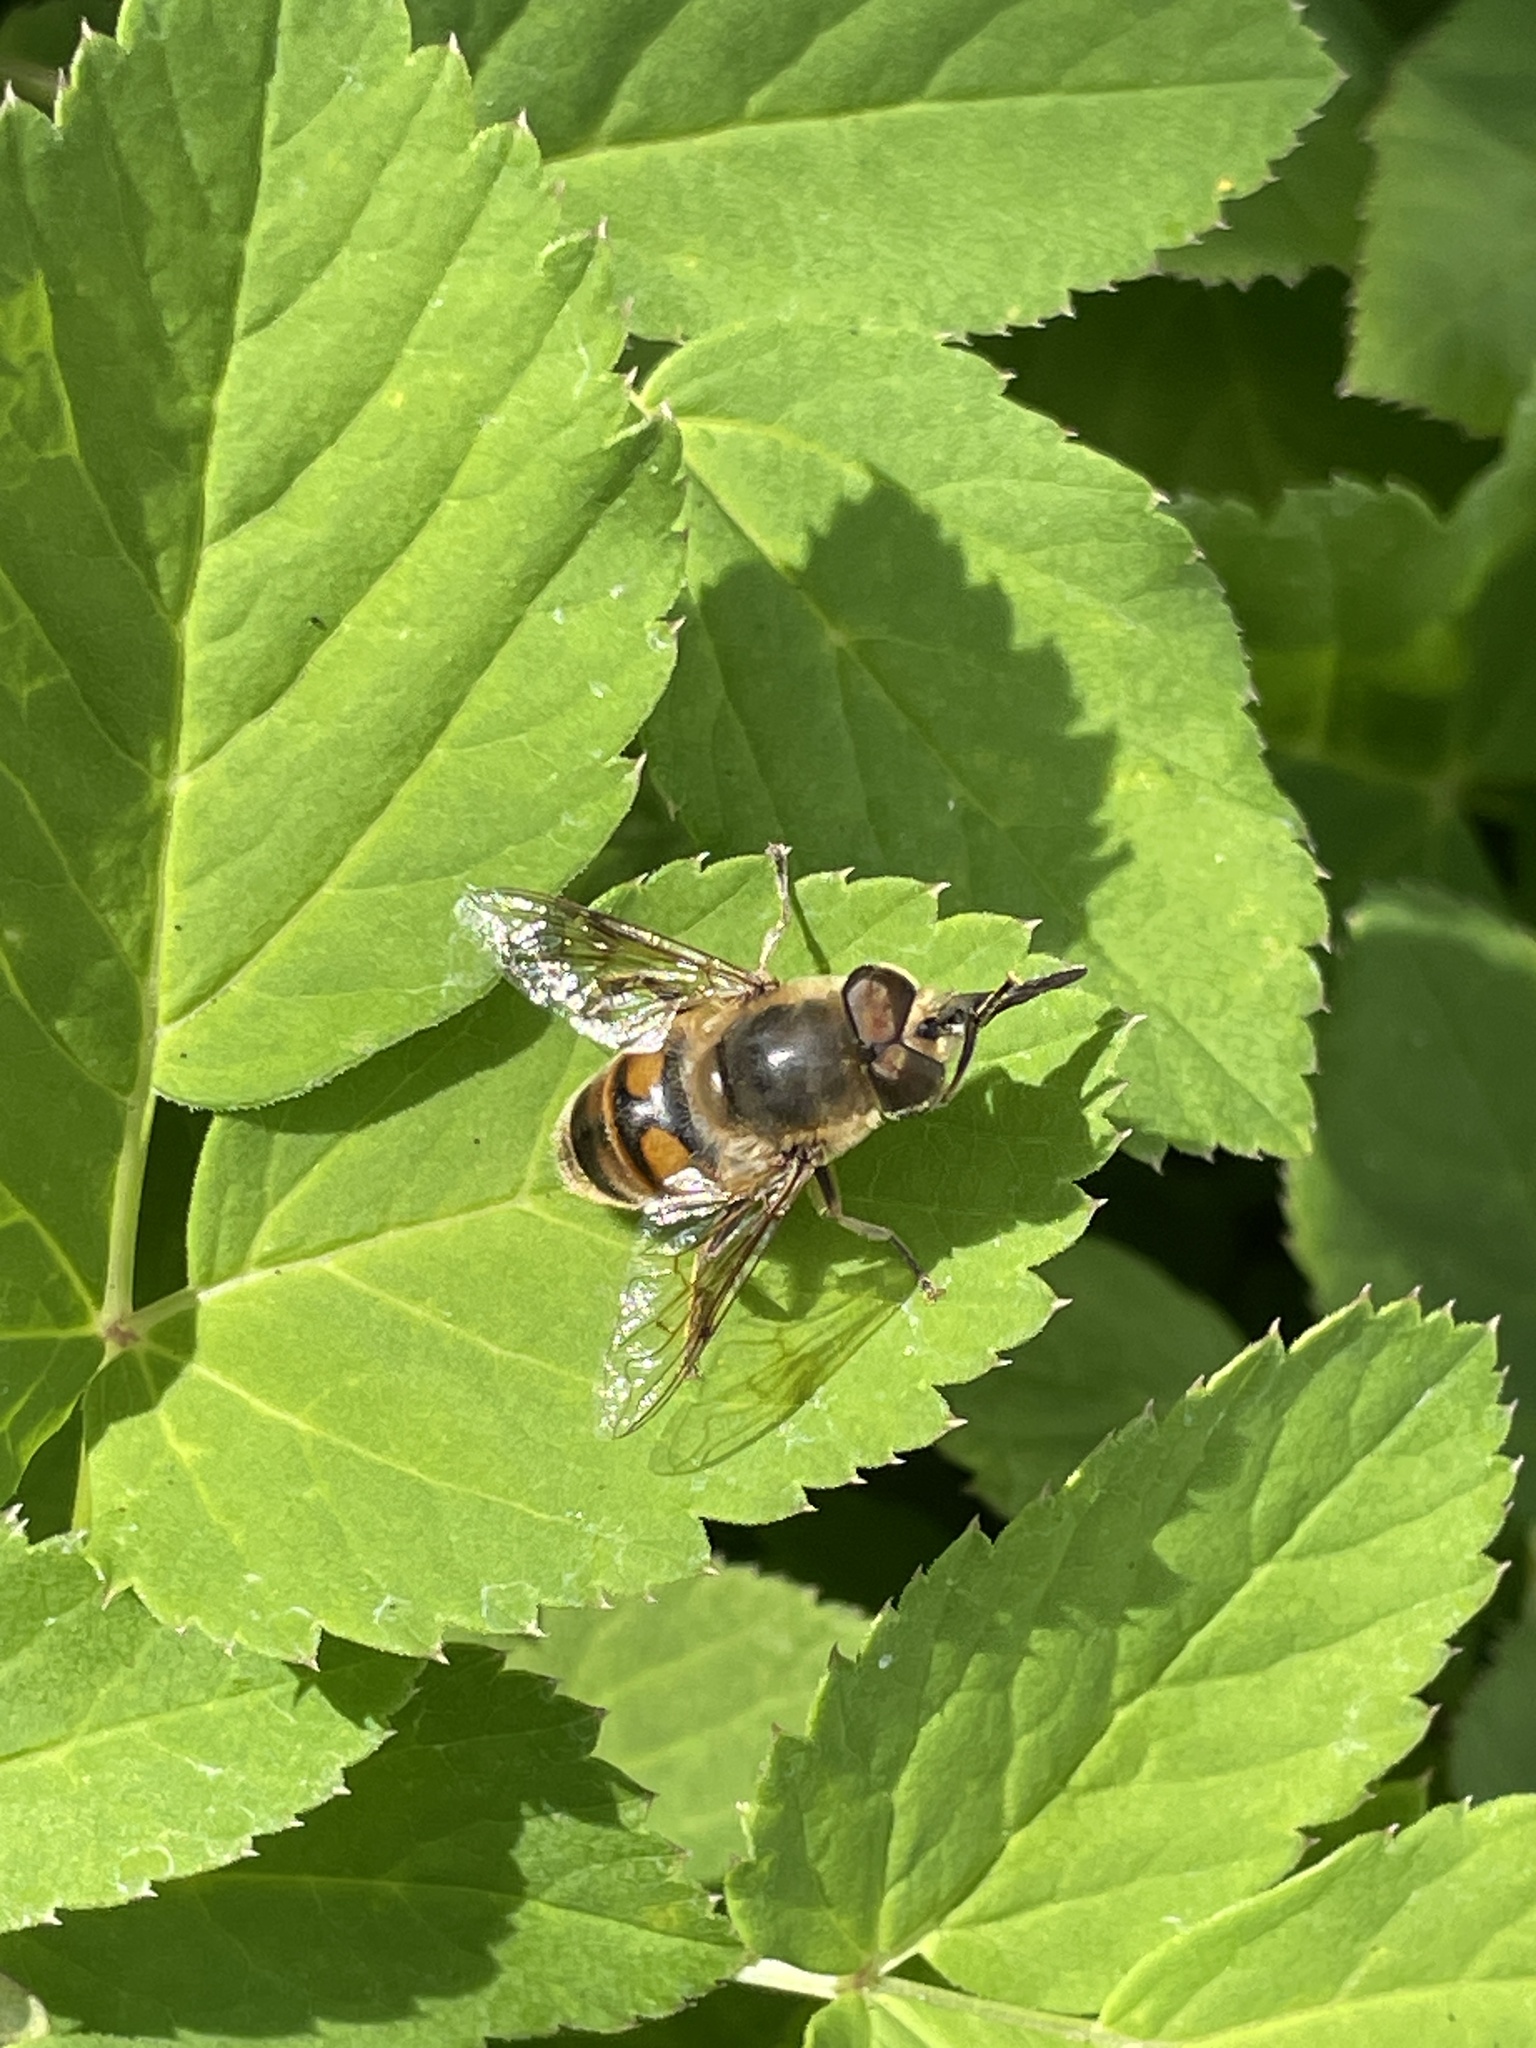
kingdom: Animalia
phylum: Arthropoda
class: Insecta
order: Diptera
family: Syrphidae
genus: Eristalis
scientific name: Eristalis tenax
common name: Drone fly
